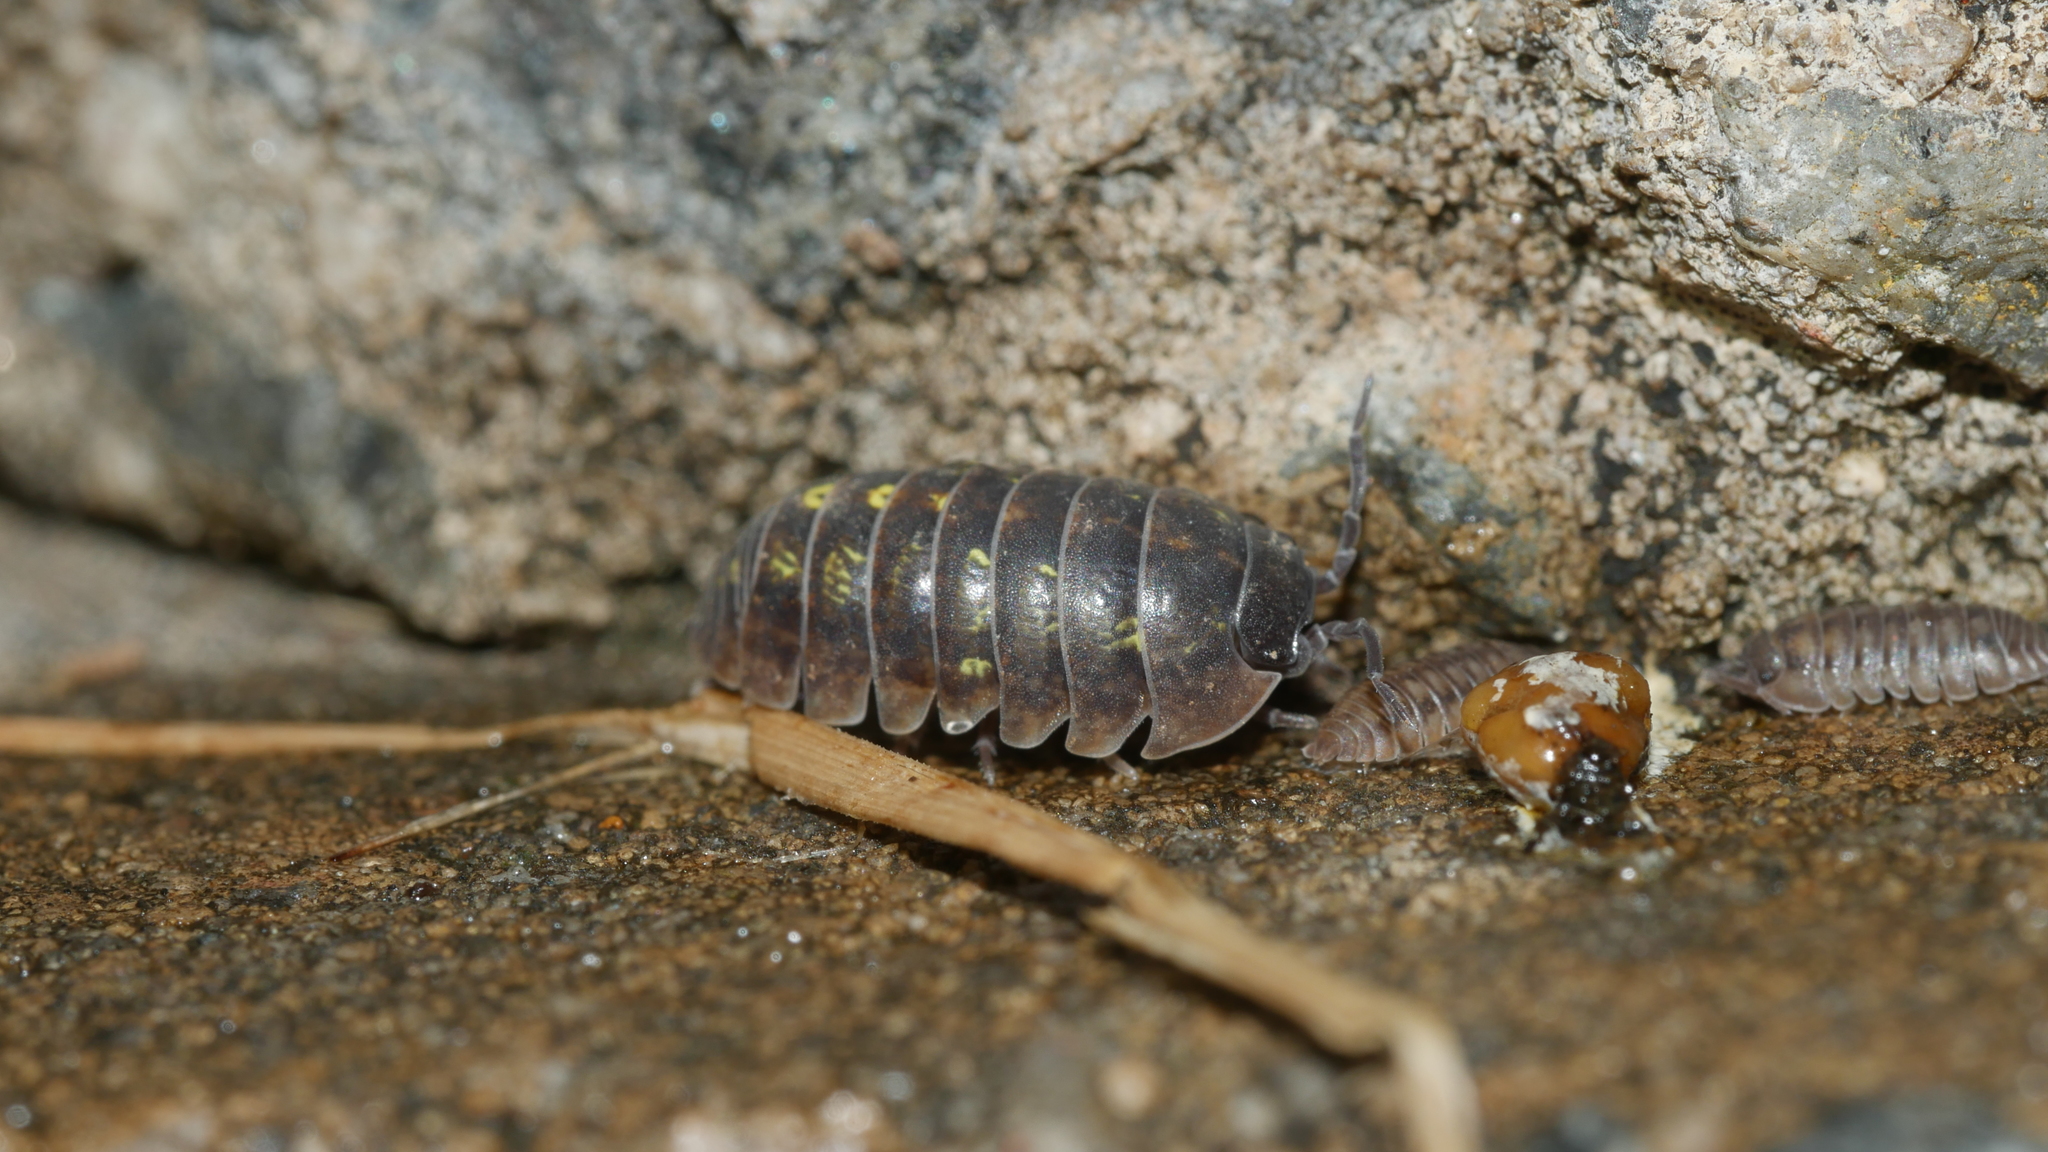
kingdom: Animalia
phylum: Arthropoda
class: Malacostraca
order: Isopoda
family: Armadillidiidae
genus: Armadillidium
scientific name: Armadillidium vulgare
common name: Common pill woodlouse
